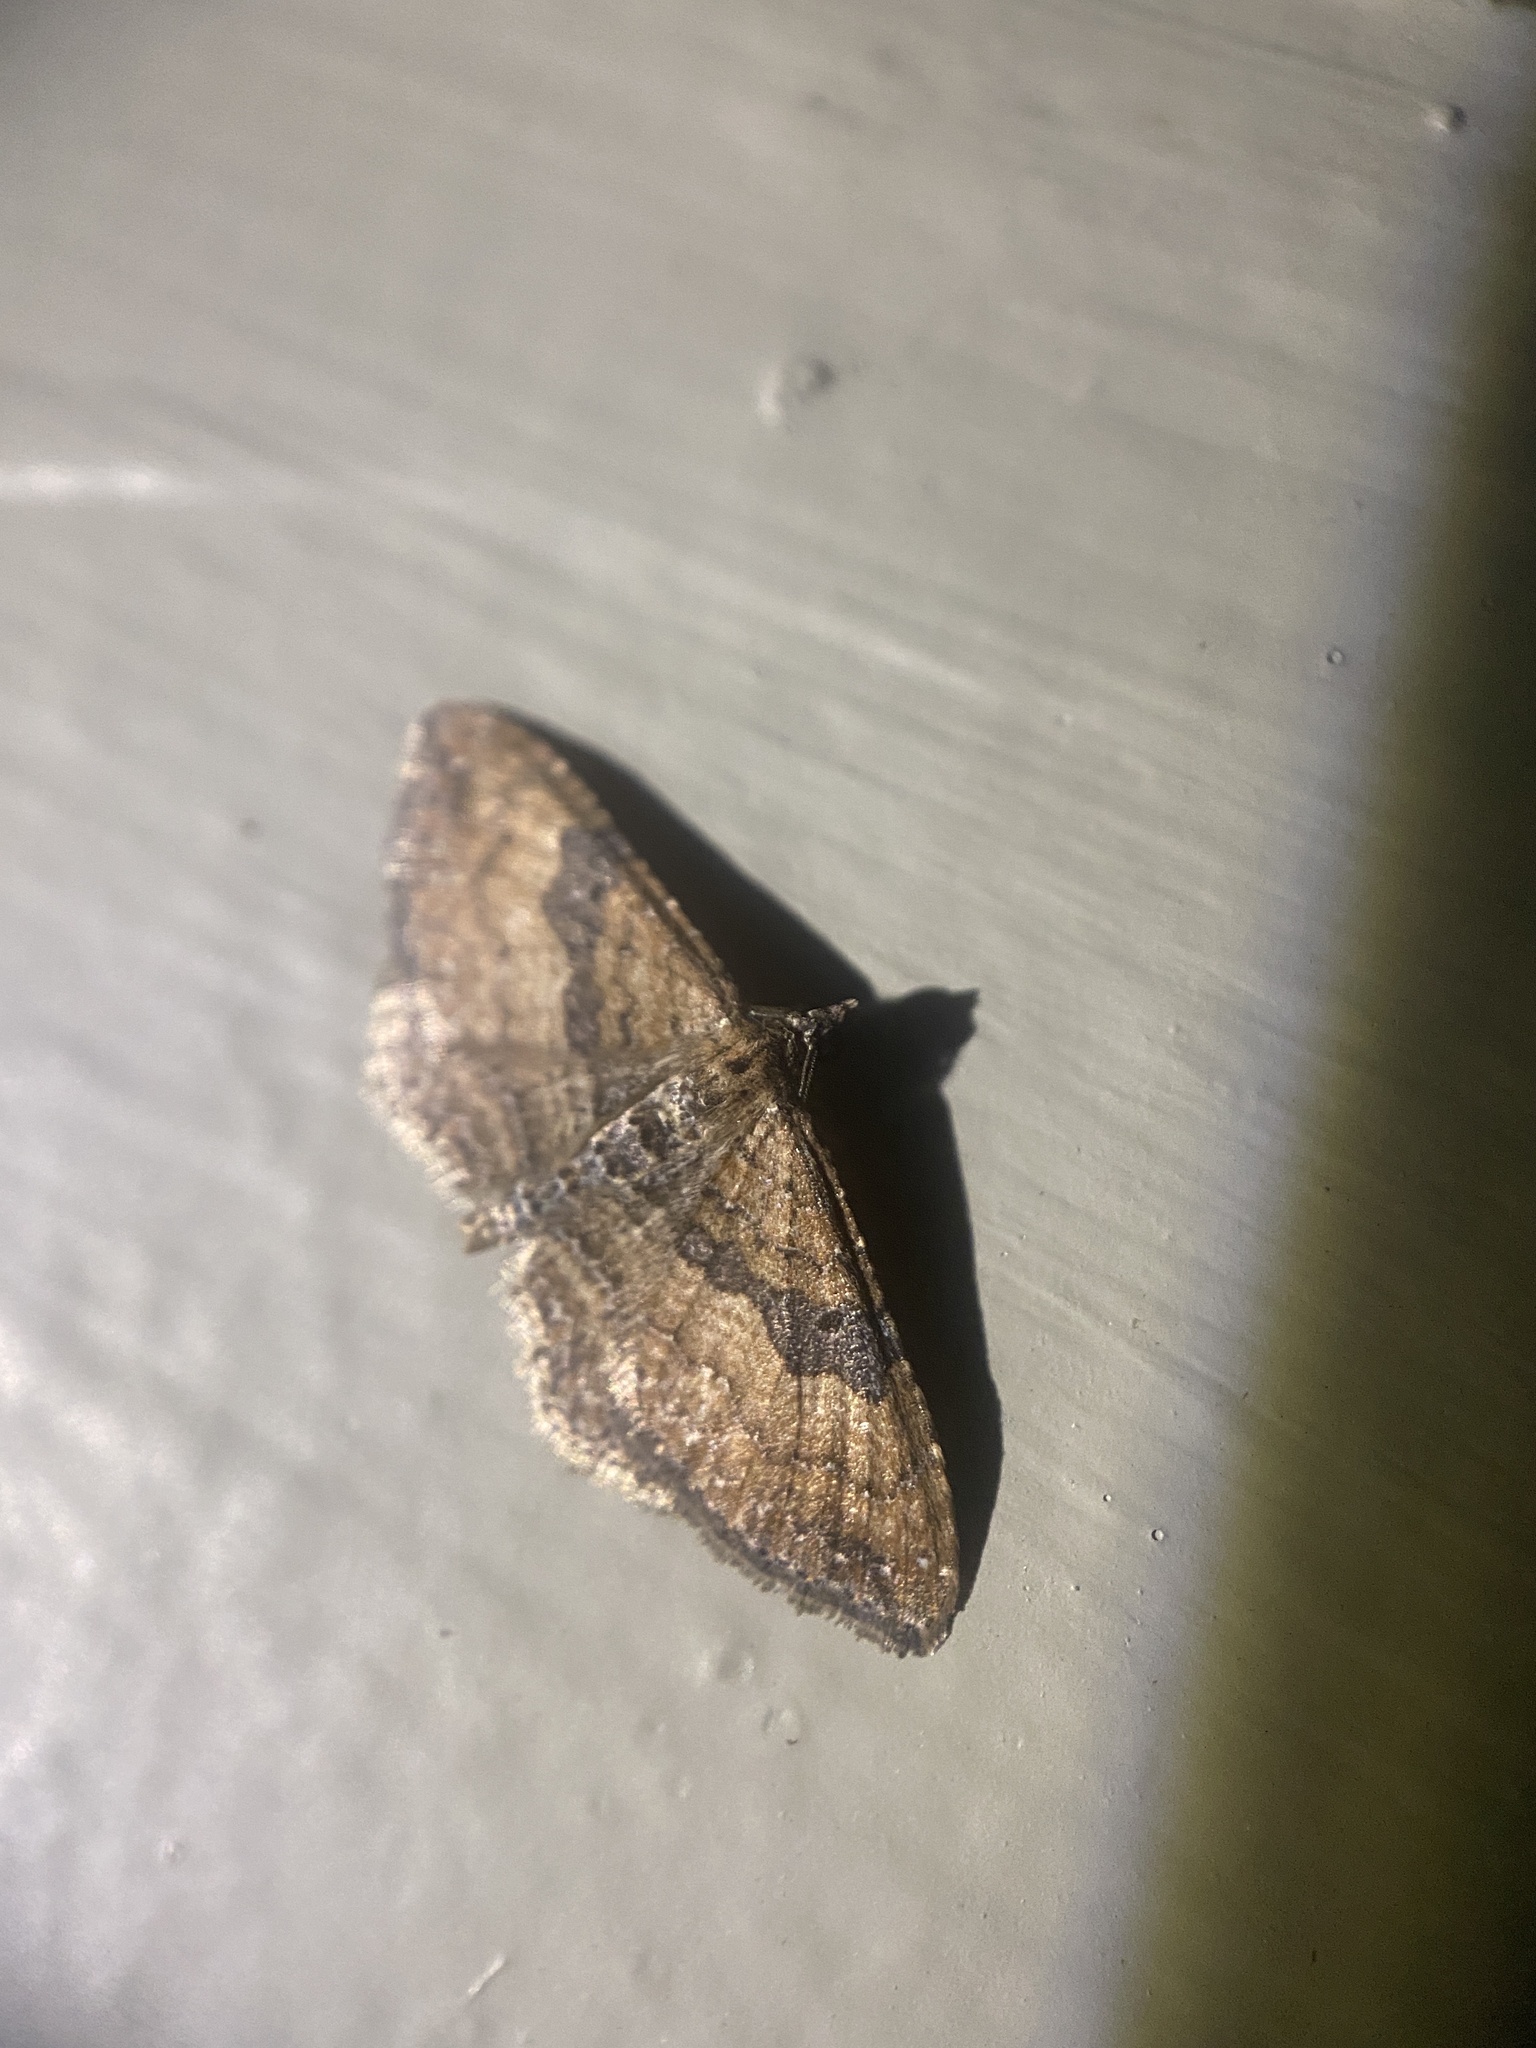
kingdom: Animalia
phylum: Arthropoda
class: Insecta
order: Lepidoptera
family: Geometridae
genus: Orthonama
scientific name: Orthonama obstipata
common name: The gem
